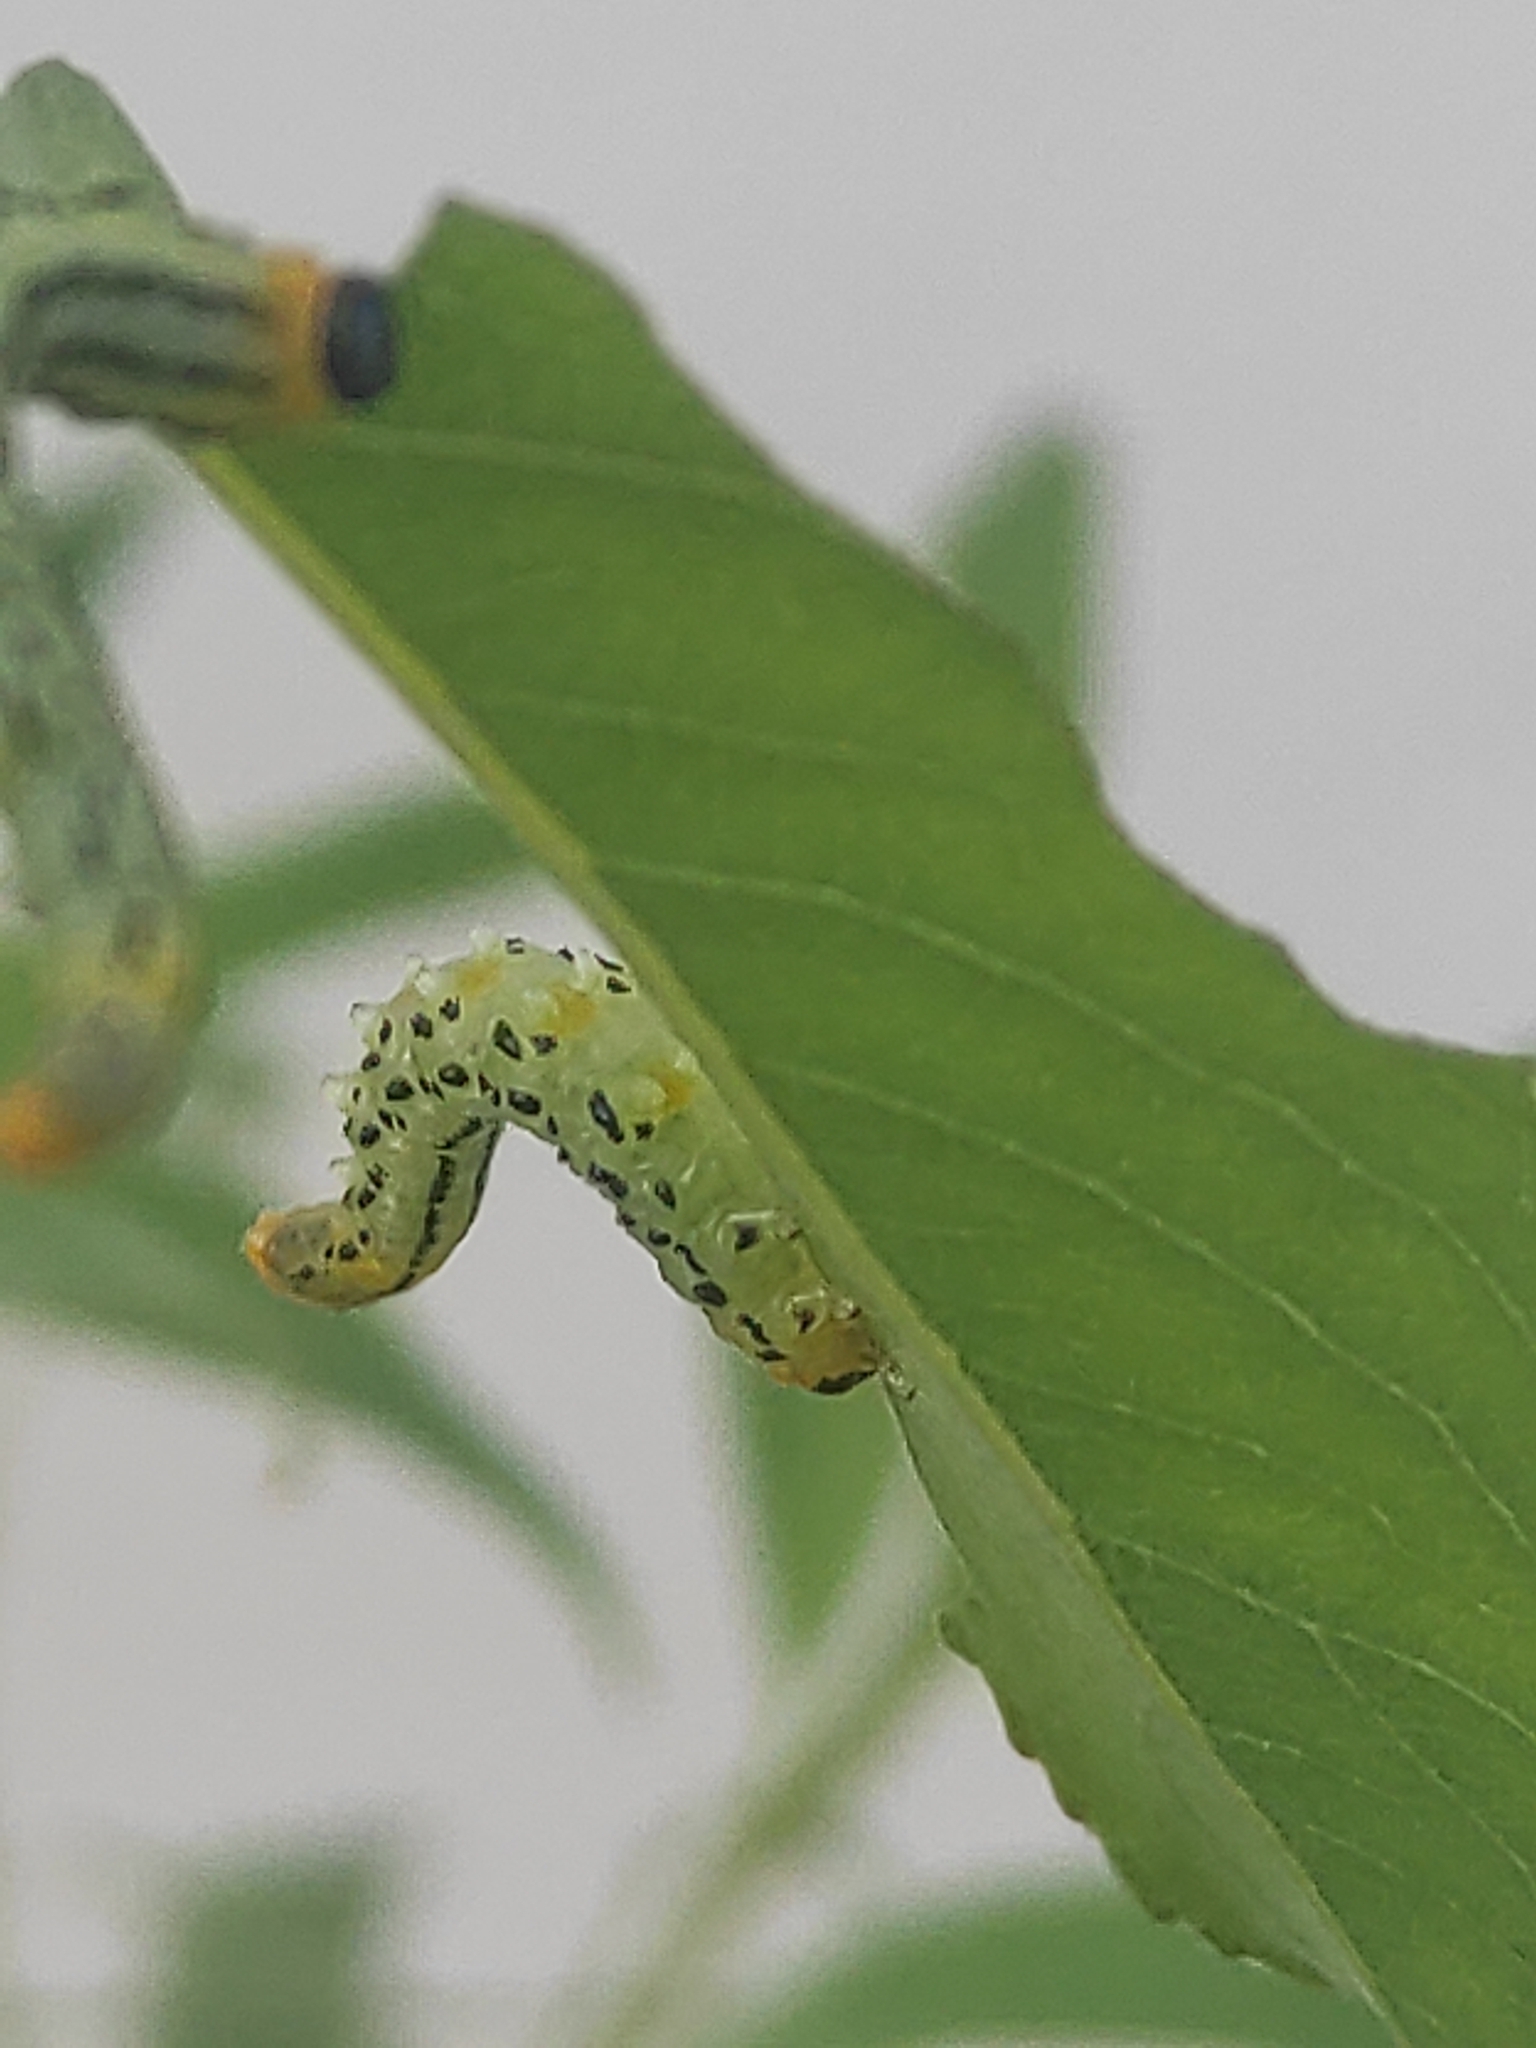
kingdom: Animalia
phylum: Arthropoda
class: Insecta
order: Hymenoptera
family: Tenthredinidae
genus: Nematus
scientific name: Nematus pavidus
